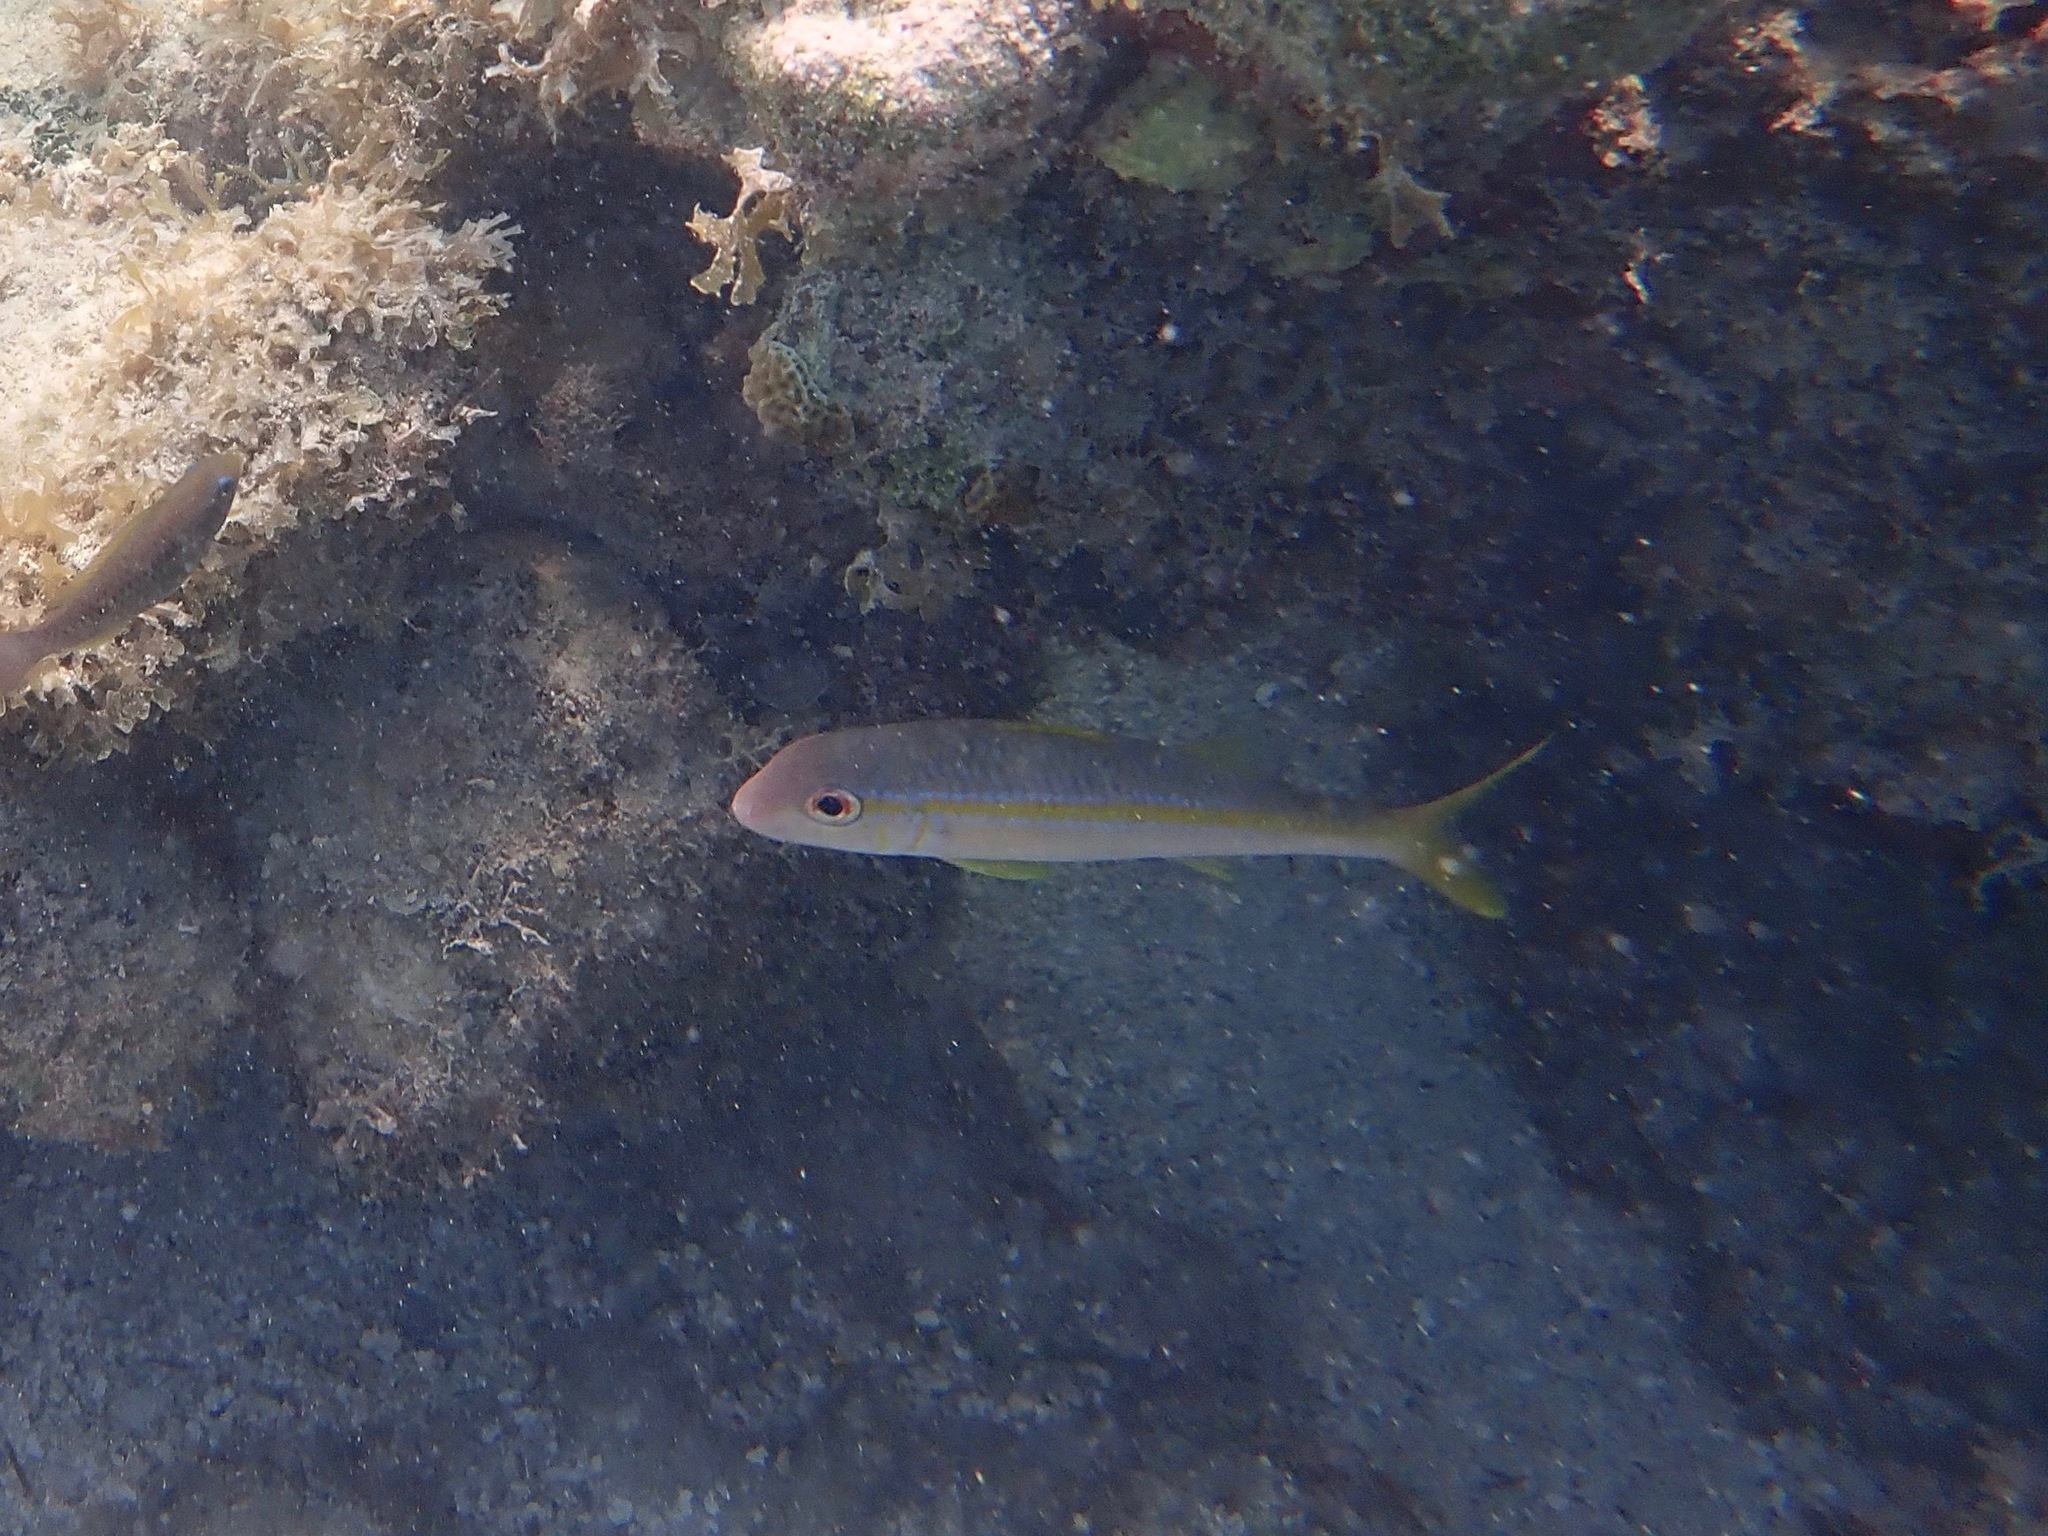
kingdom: Animalia
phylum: Chordata
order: Perciformes
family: Mullidae
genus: Mulloidichthys
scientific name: Mulloidichthys martinicus
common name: Yellow goatfish
